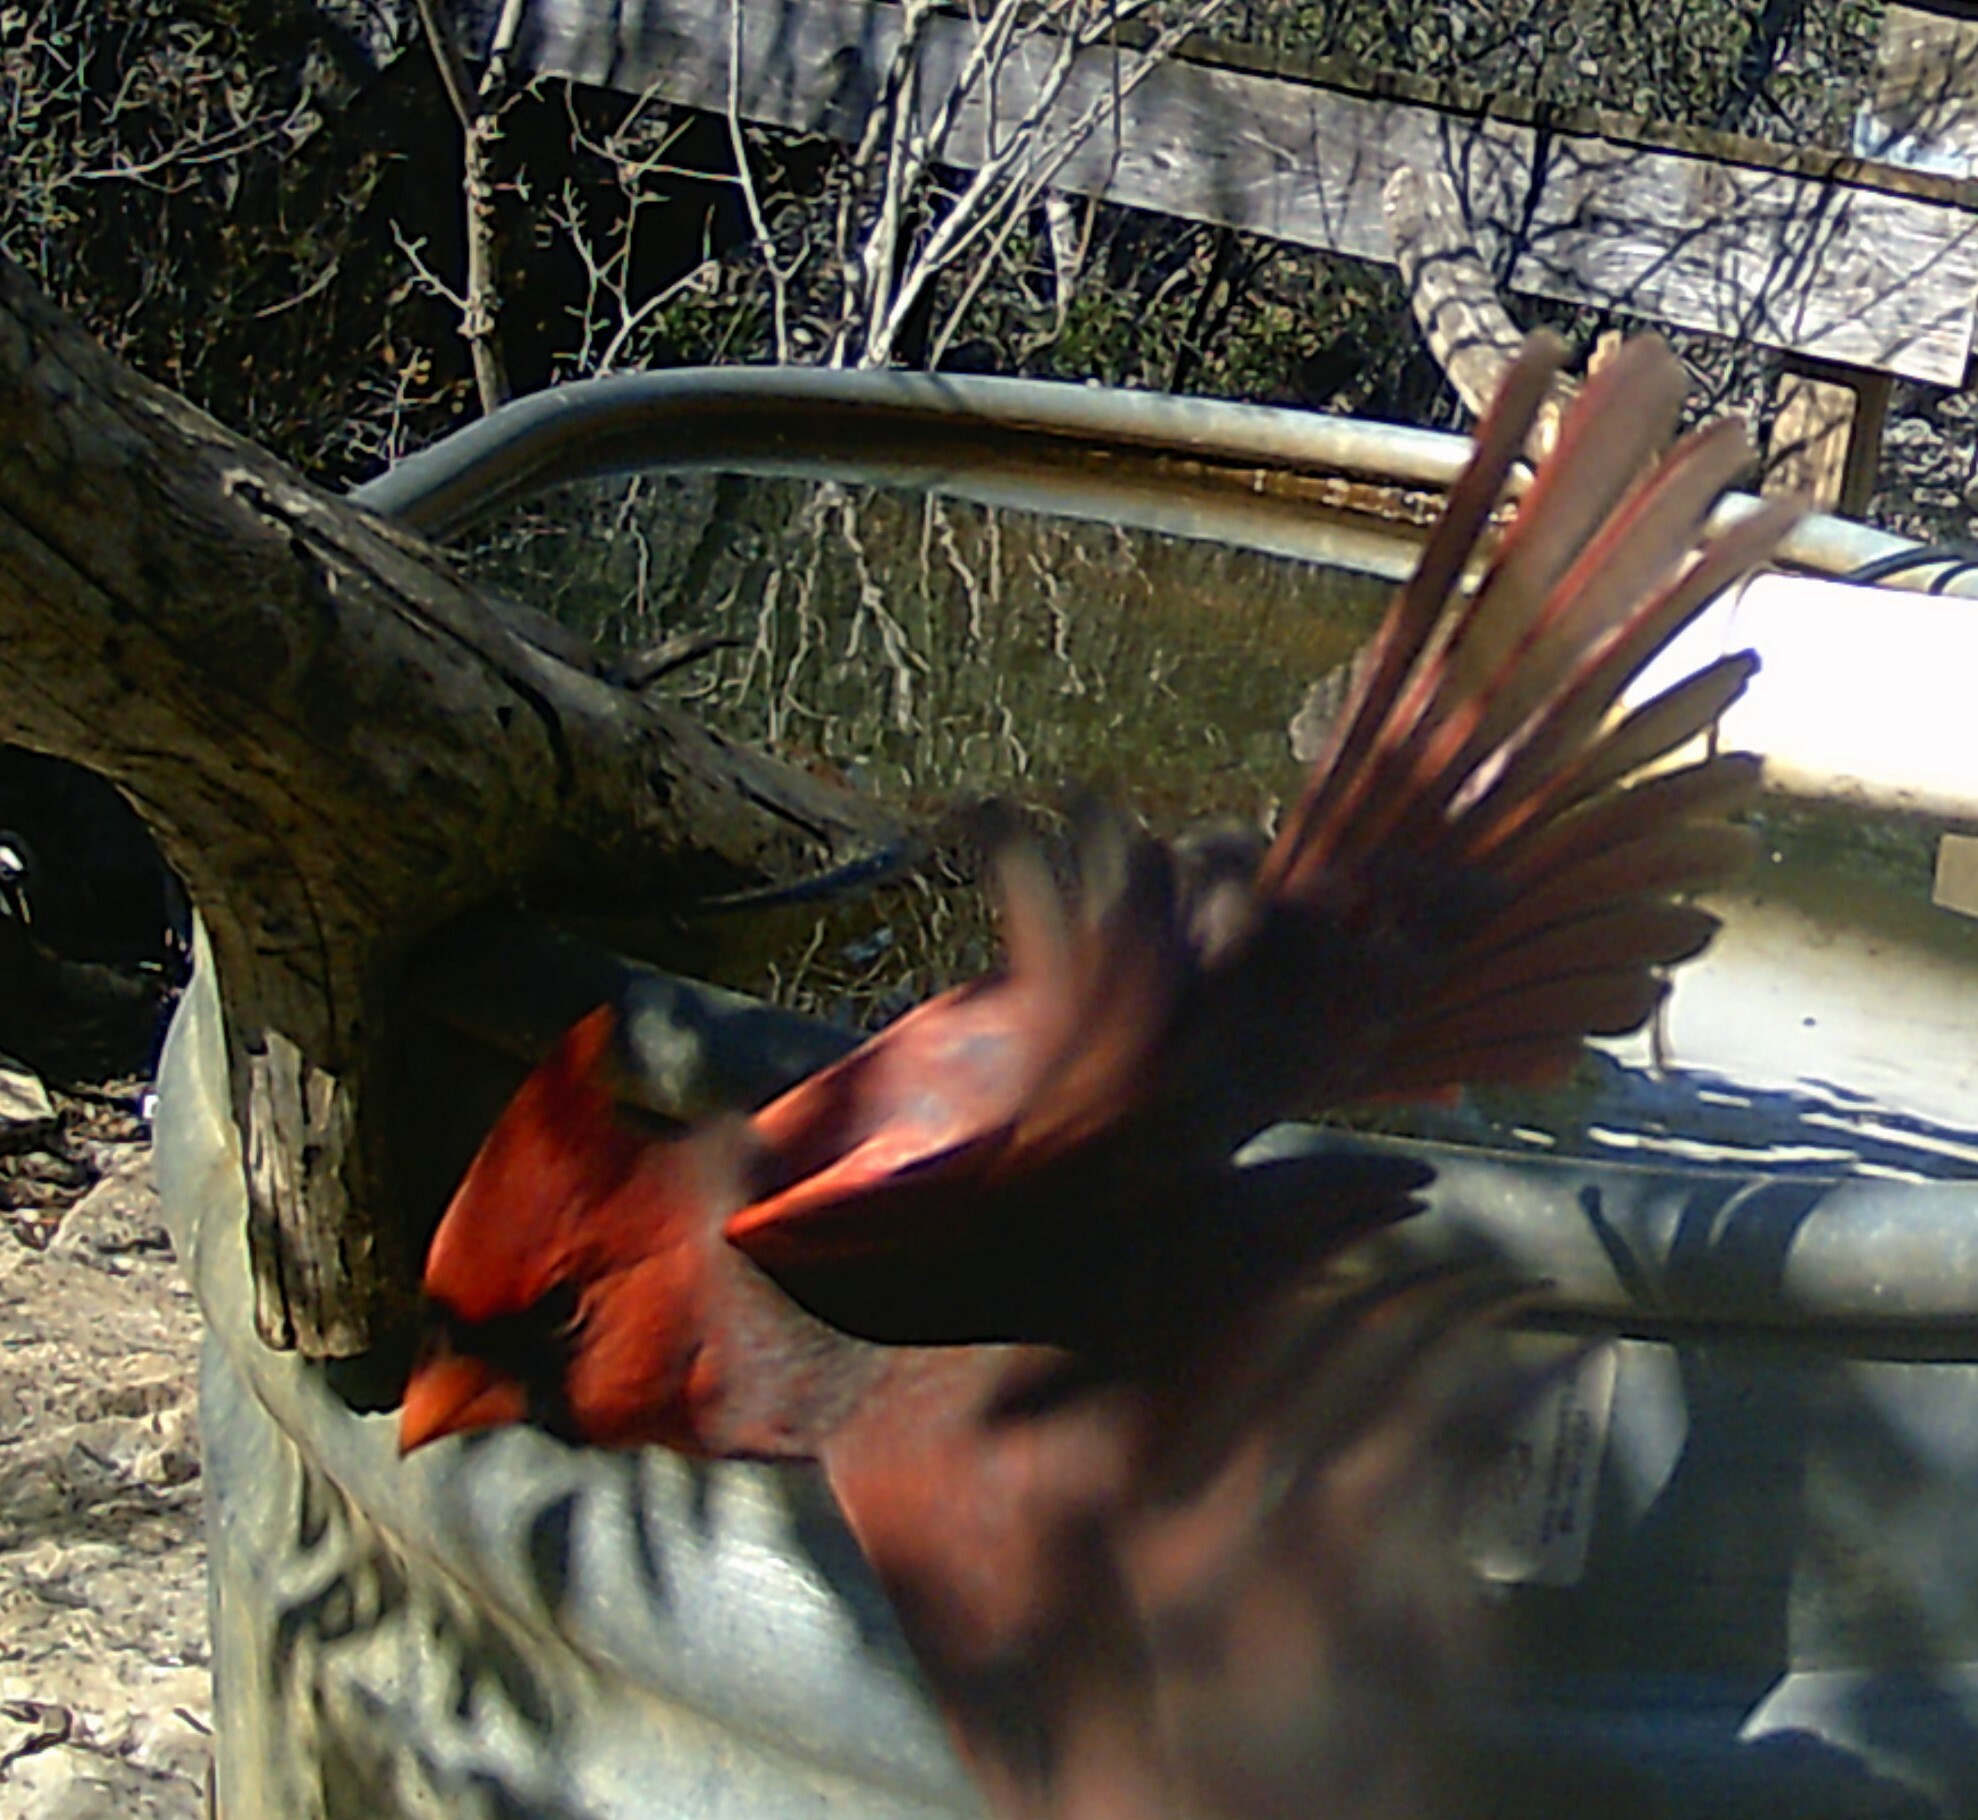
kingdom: Animalia
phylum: Chordata
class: Aves
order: Passeriformes
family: Cardinalidae
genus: Cardinalis
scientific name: Cardinalis cardinalis
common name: Northern cardinal
